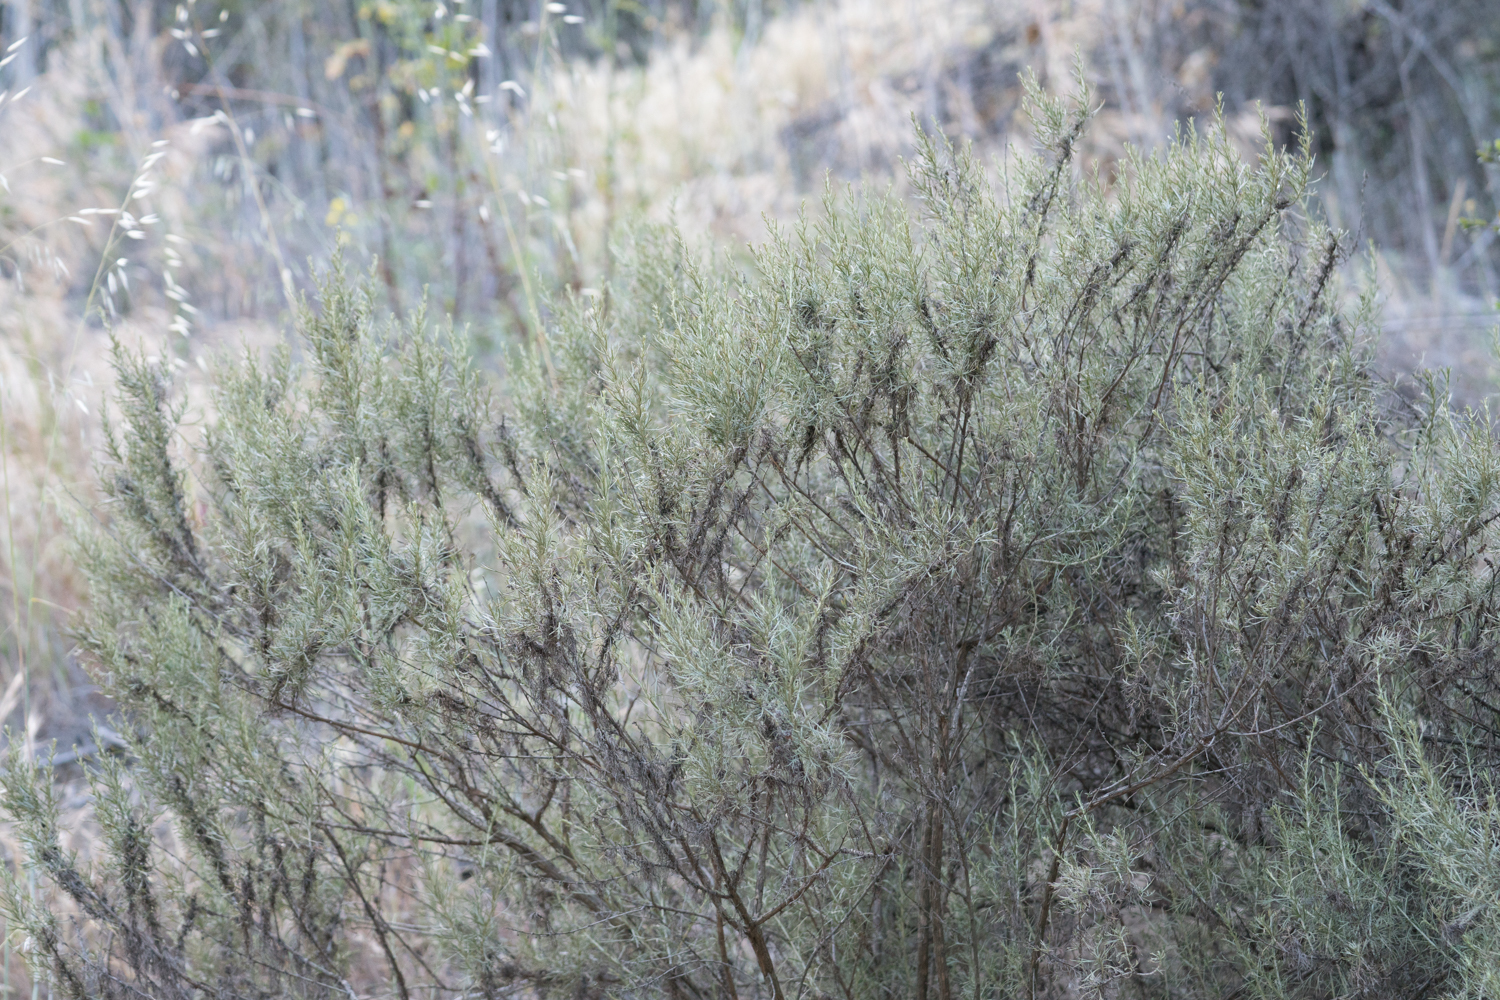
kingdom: Plantae
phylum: Tracheophyta
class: Magnoliopsida
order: Asterales
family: Asteraceae
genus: Artemisia
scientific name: Artemisia californica
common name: California sagebrush
